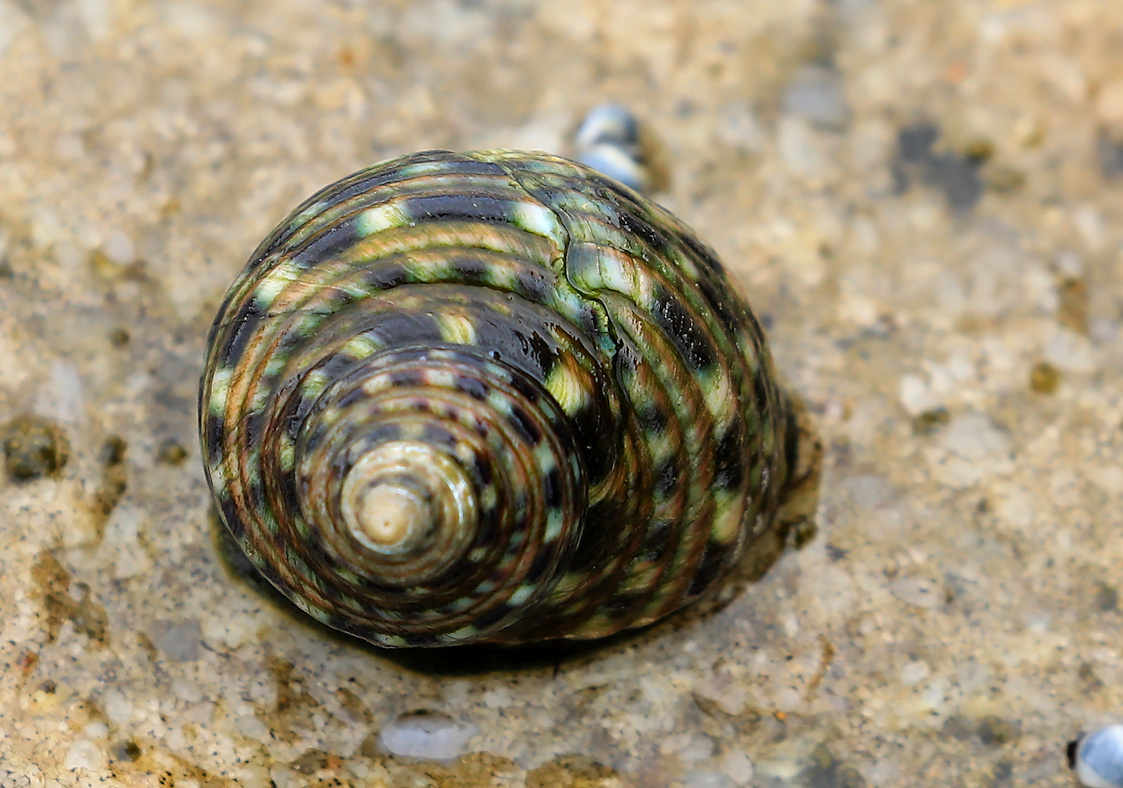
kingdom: Animalia
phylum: Mollusca
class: Gastropoda
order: Trochida
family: Trochidae
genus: Monodonta
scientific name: Monodonta australis
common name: Toothed topshell
